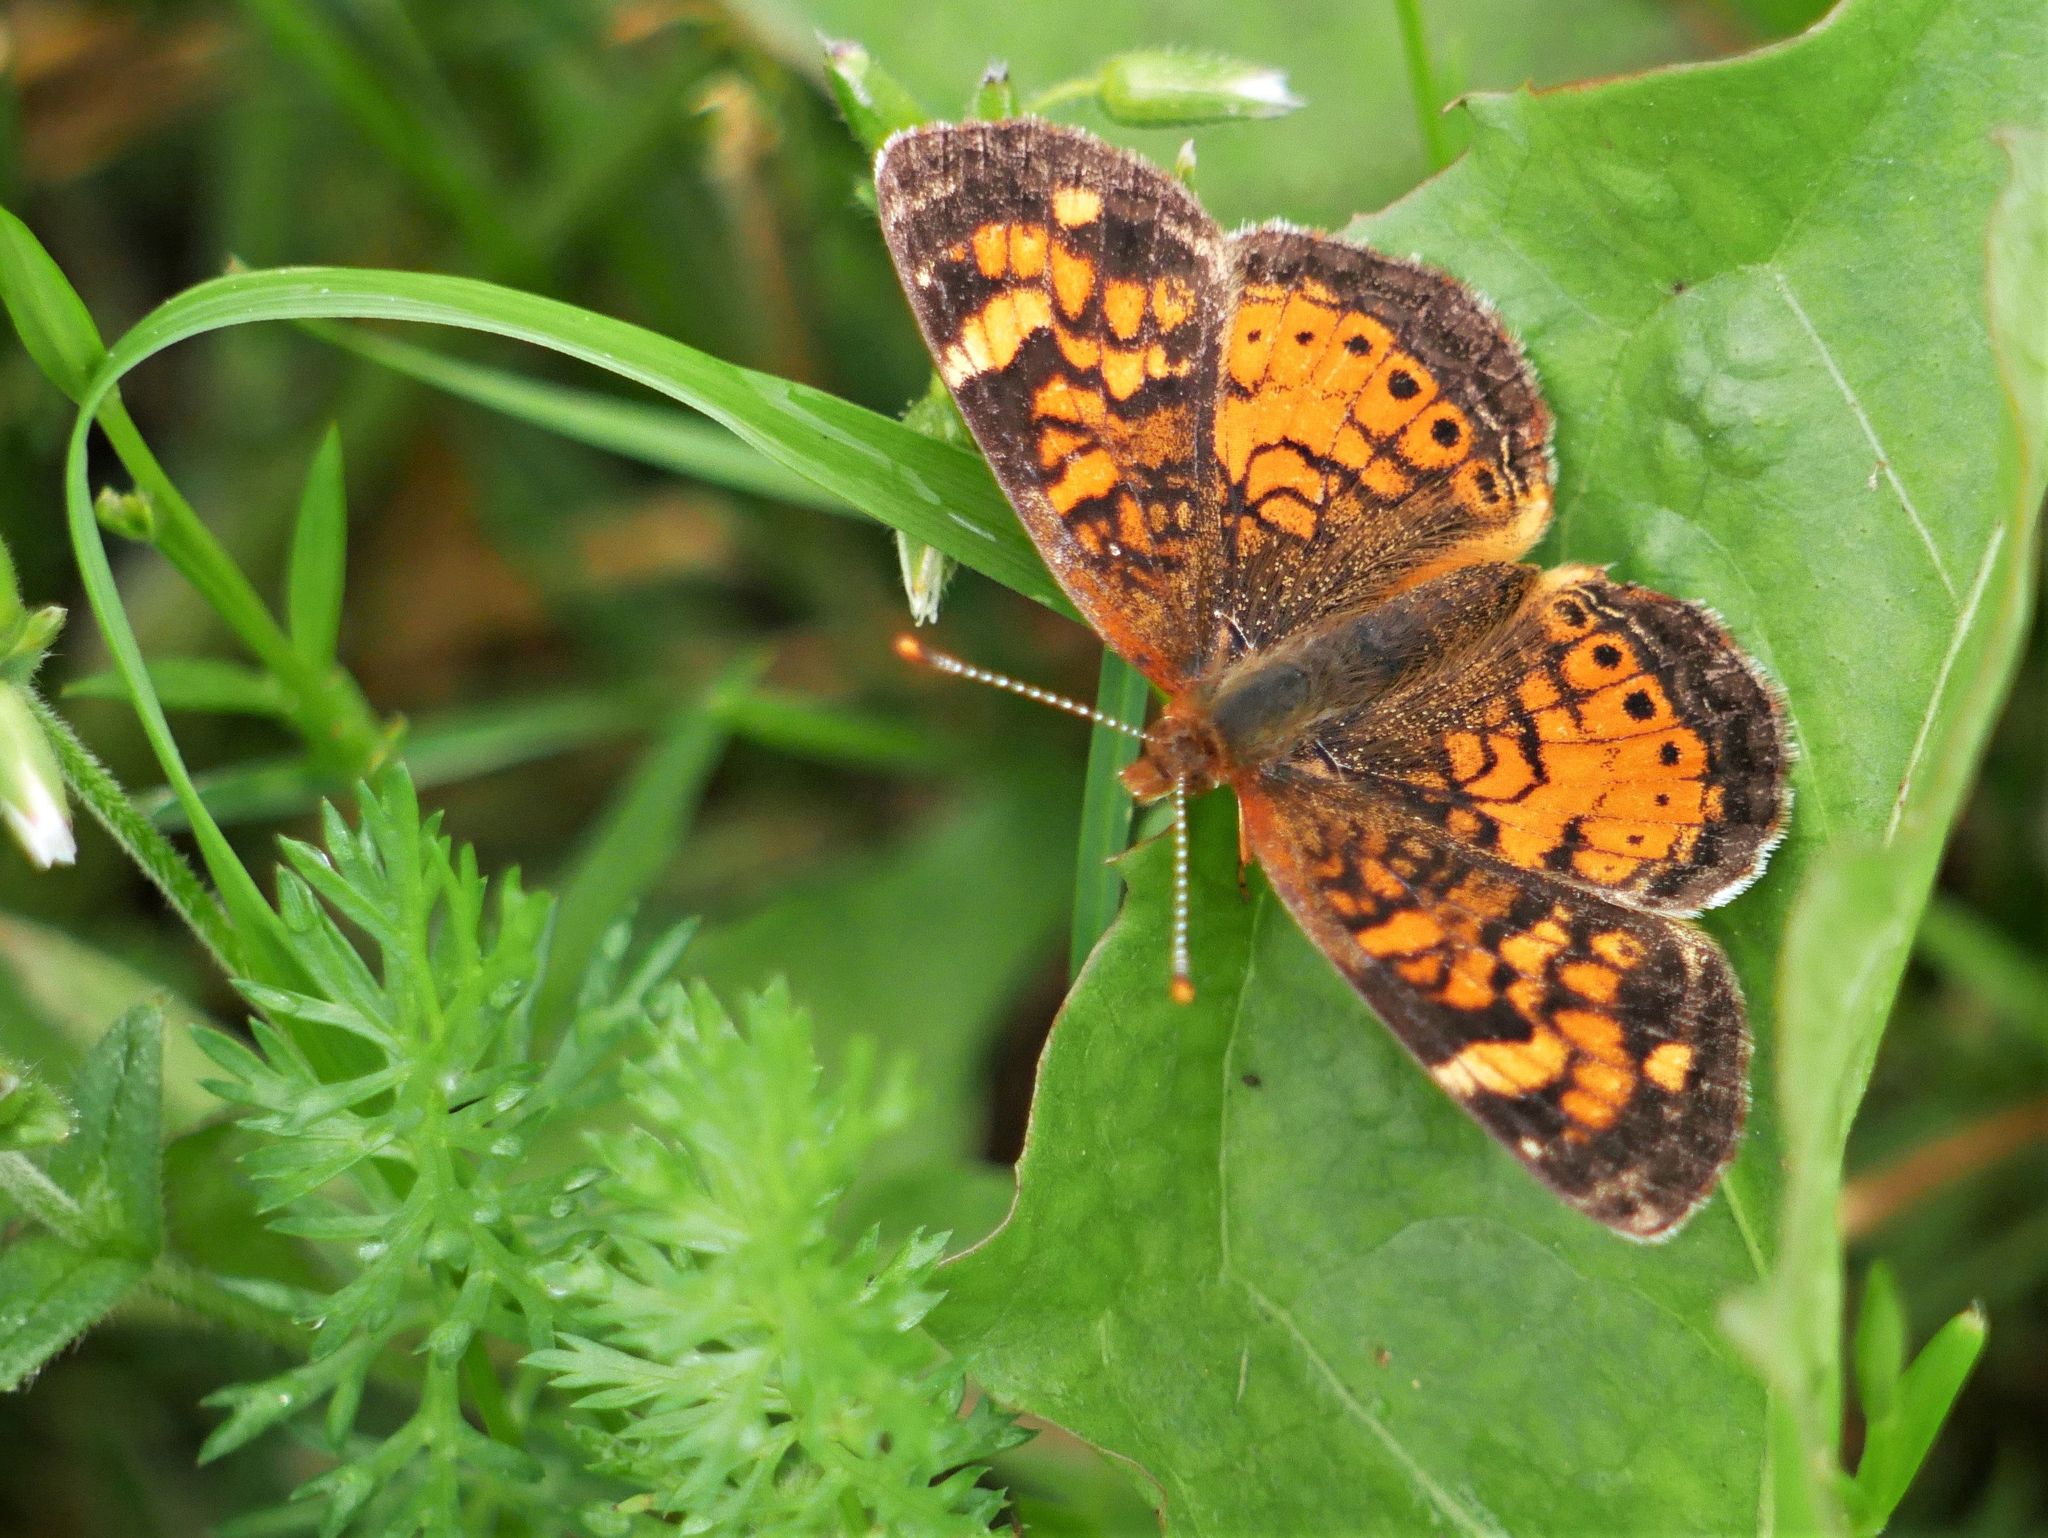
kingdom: Animalia
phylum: Arthropoda
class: Insecta
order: Lepidoptera
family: Nymphalidae
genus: Phyciodes
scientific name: Phyciodes tharos
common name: Pearl crescent
